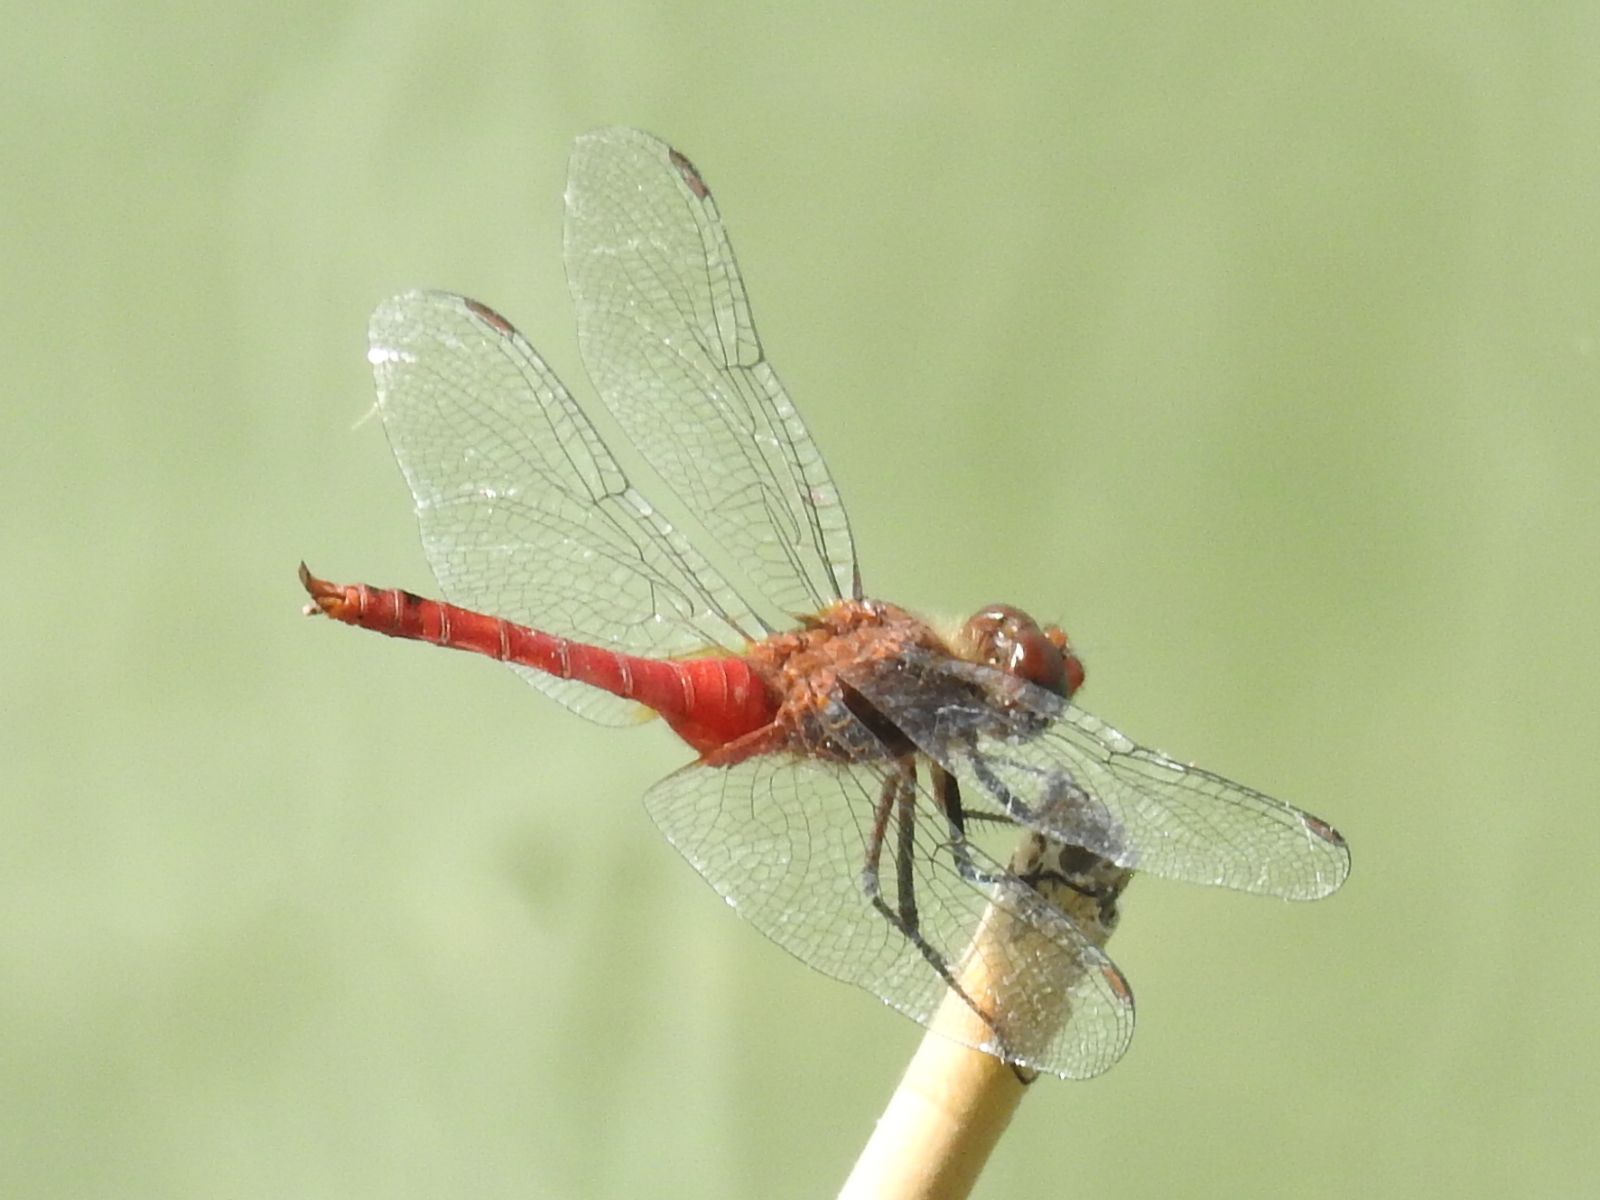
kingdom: Animalia
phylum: Arthropoda
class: Insecta
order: Odonata
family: Libellulidae
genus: Brachymesia
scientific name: Brachymesia furcata
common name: Red-taled pennant
